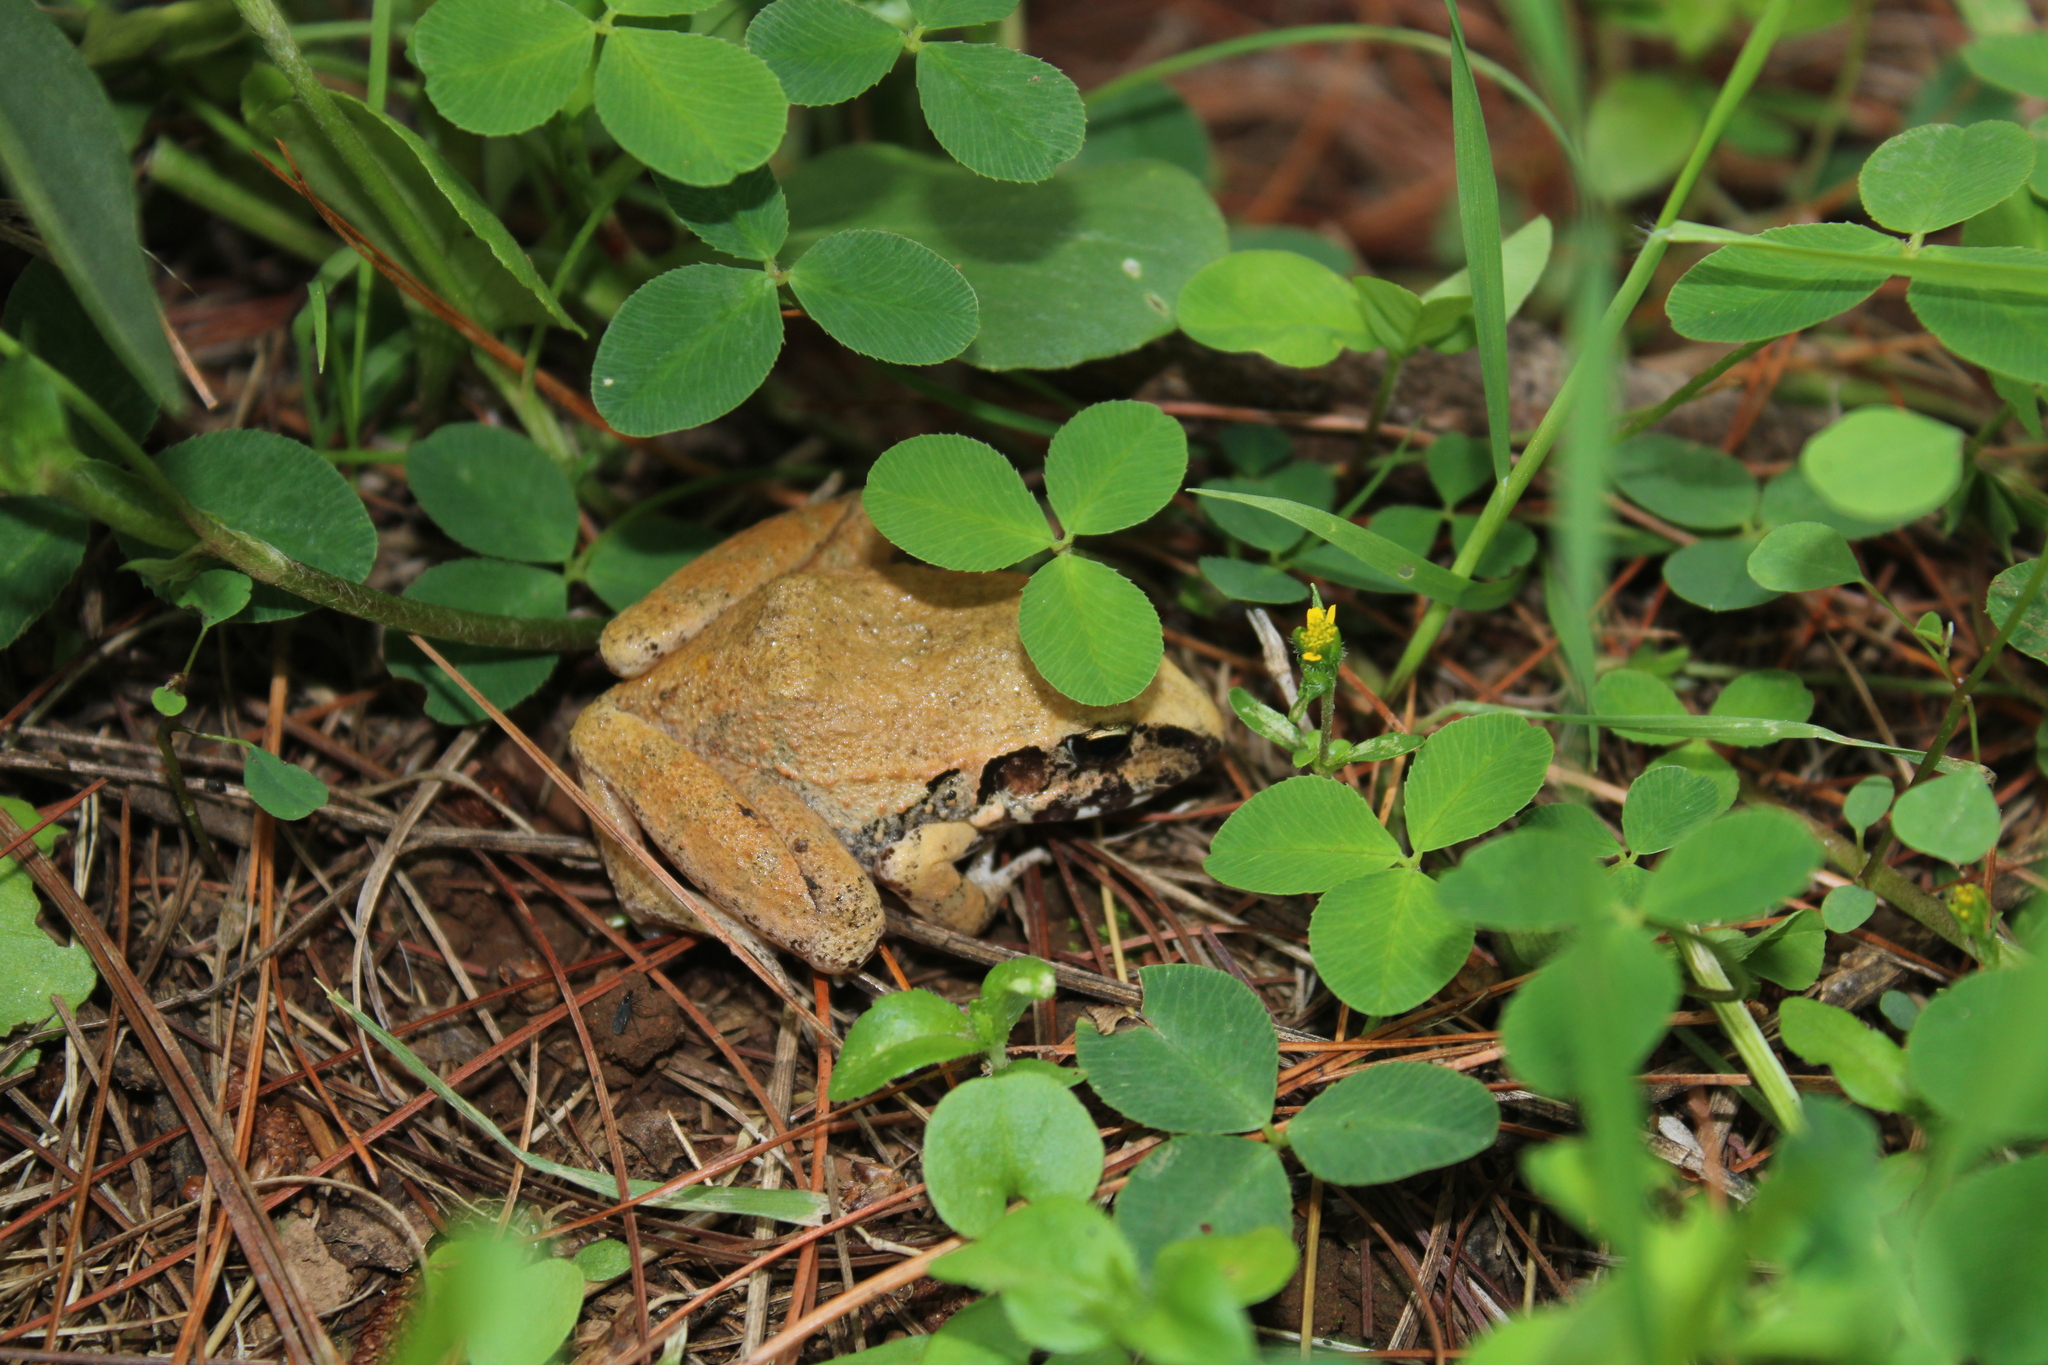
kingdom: Animalia
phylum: Chordata
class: Amphibia
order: Anura
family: Craugastoridae
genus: Craugastor
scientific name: Craugastor occidentalis
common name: Taylor's barking frog
